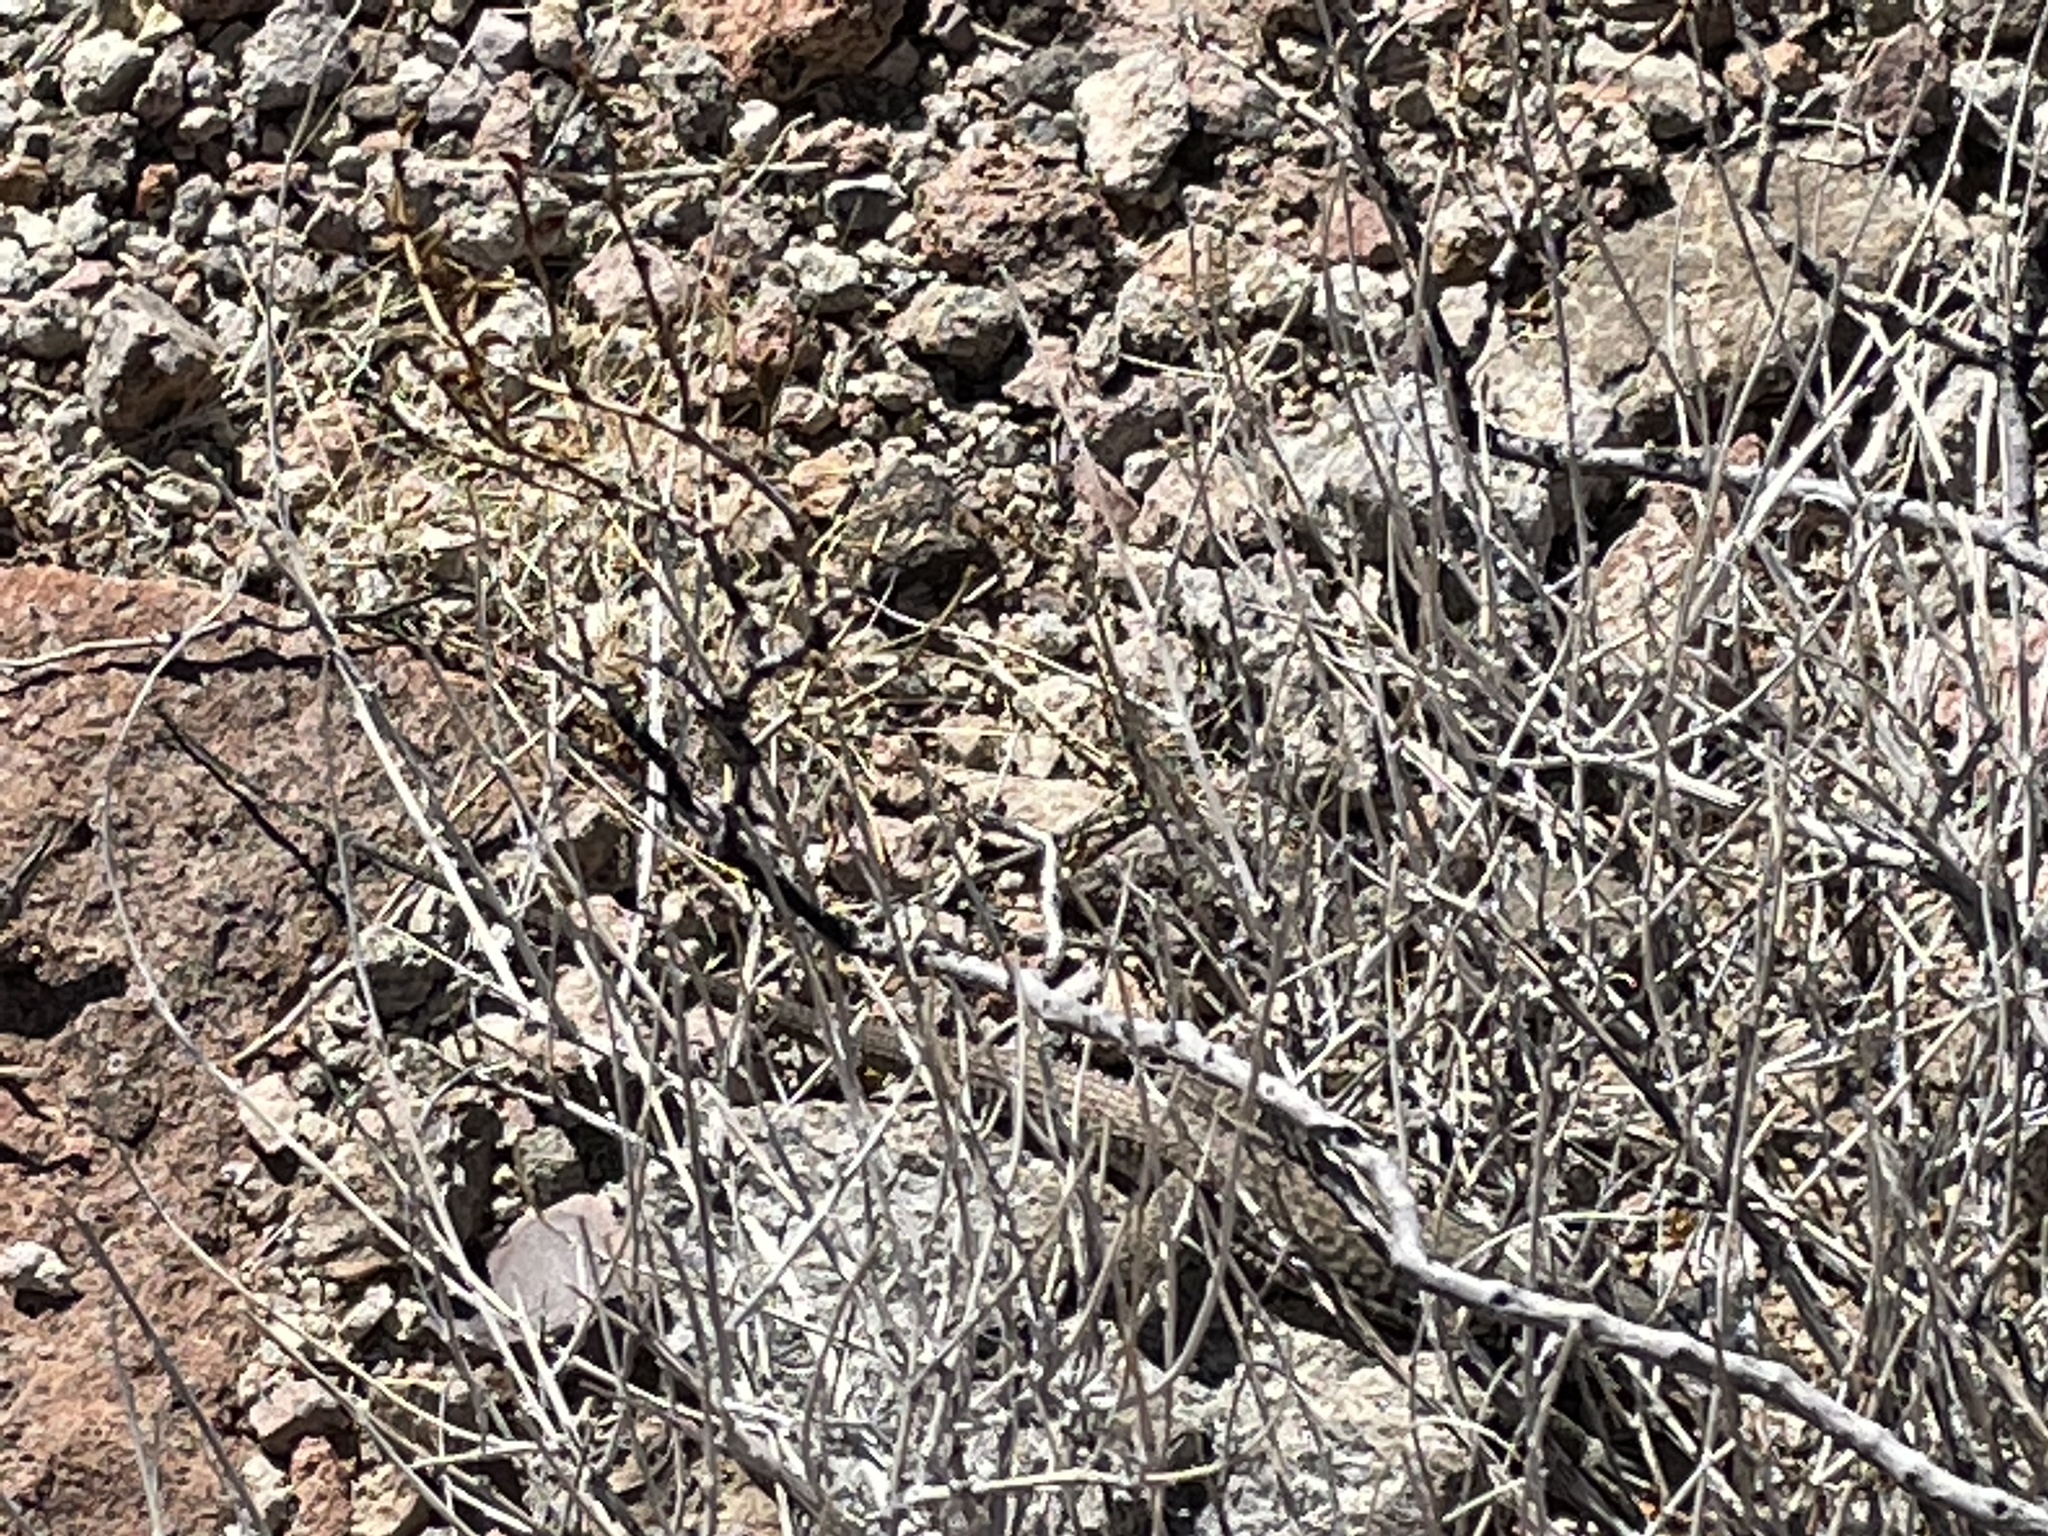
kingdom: Animalia
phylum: Chordata
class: Squamata
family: Teiidae
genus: Aspidoscelis
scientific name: Aspidoscelis tigris
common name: Tiger whiptail
